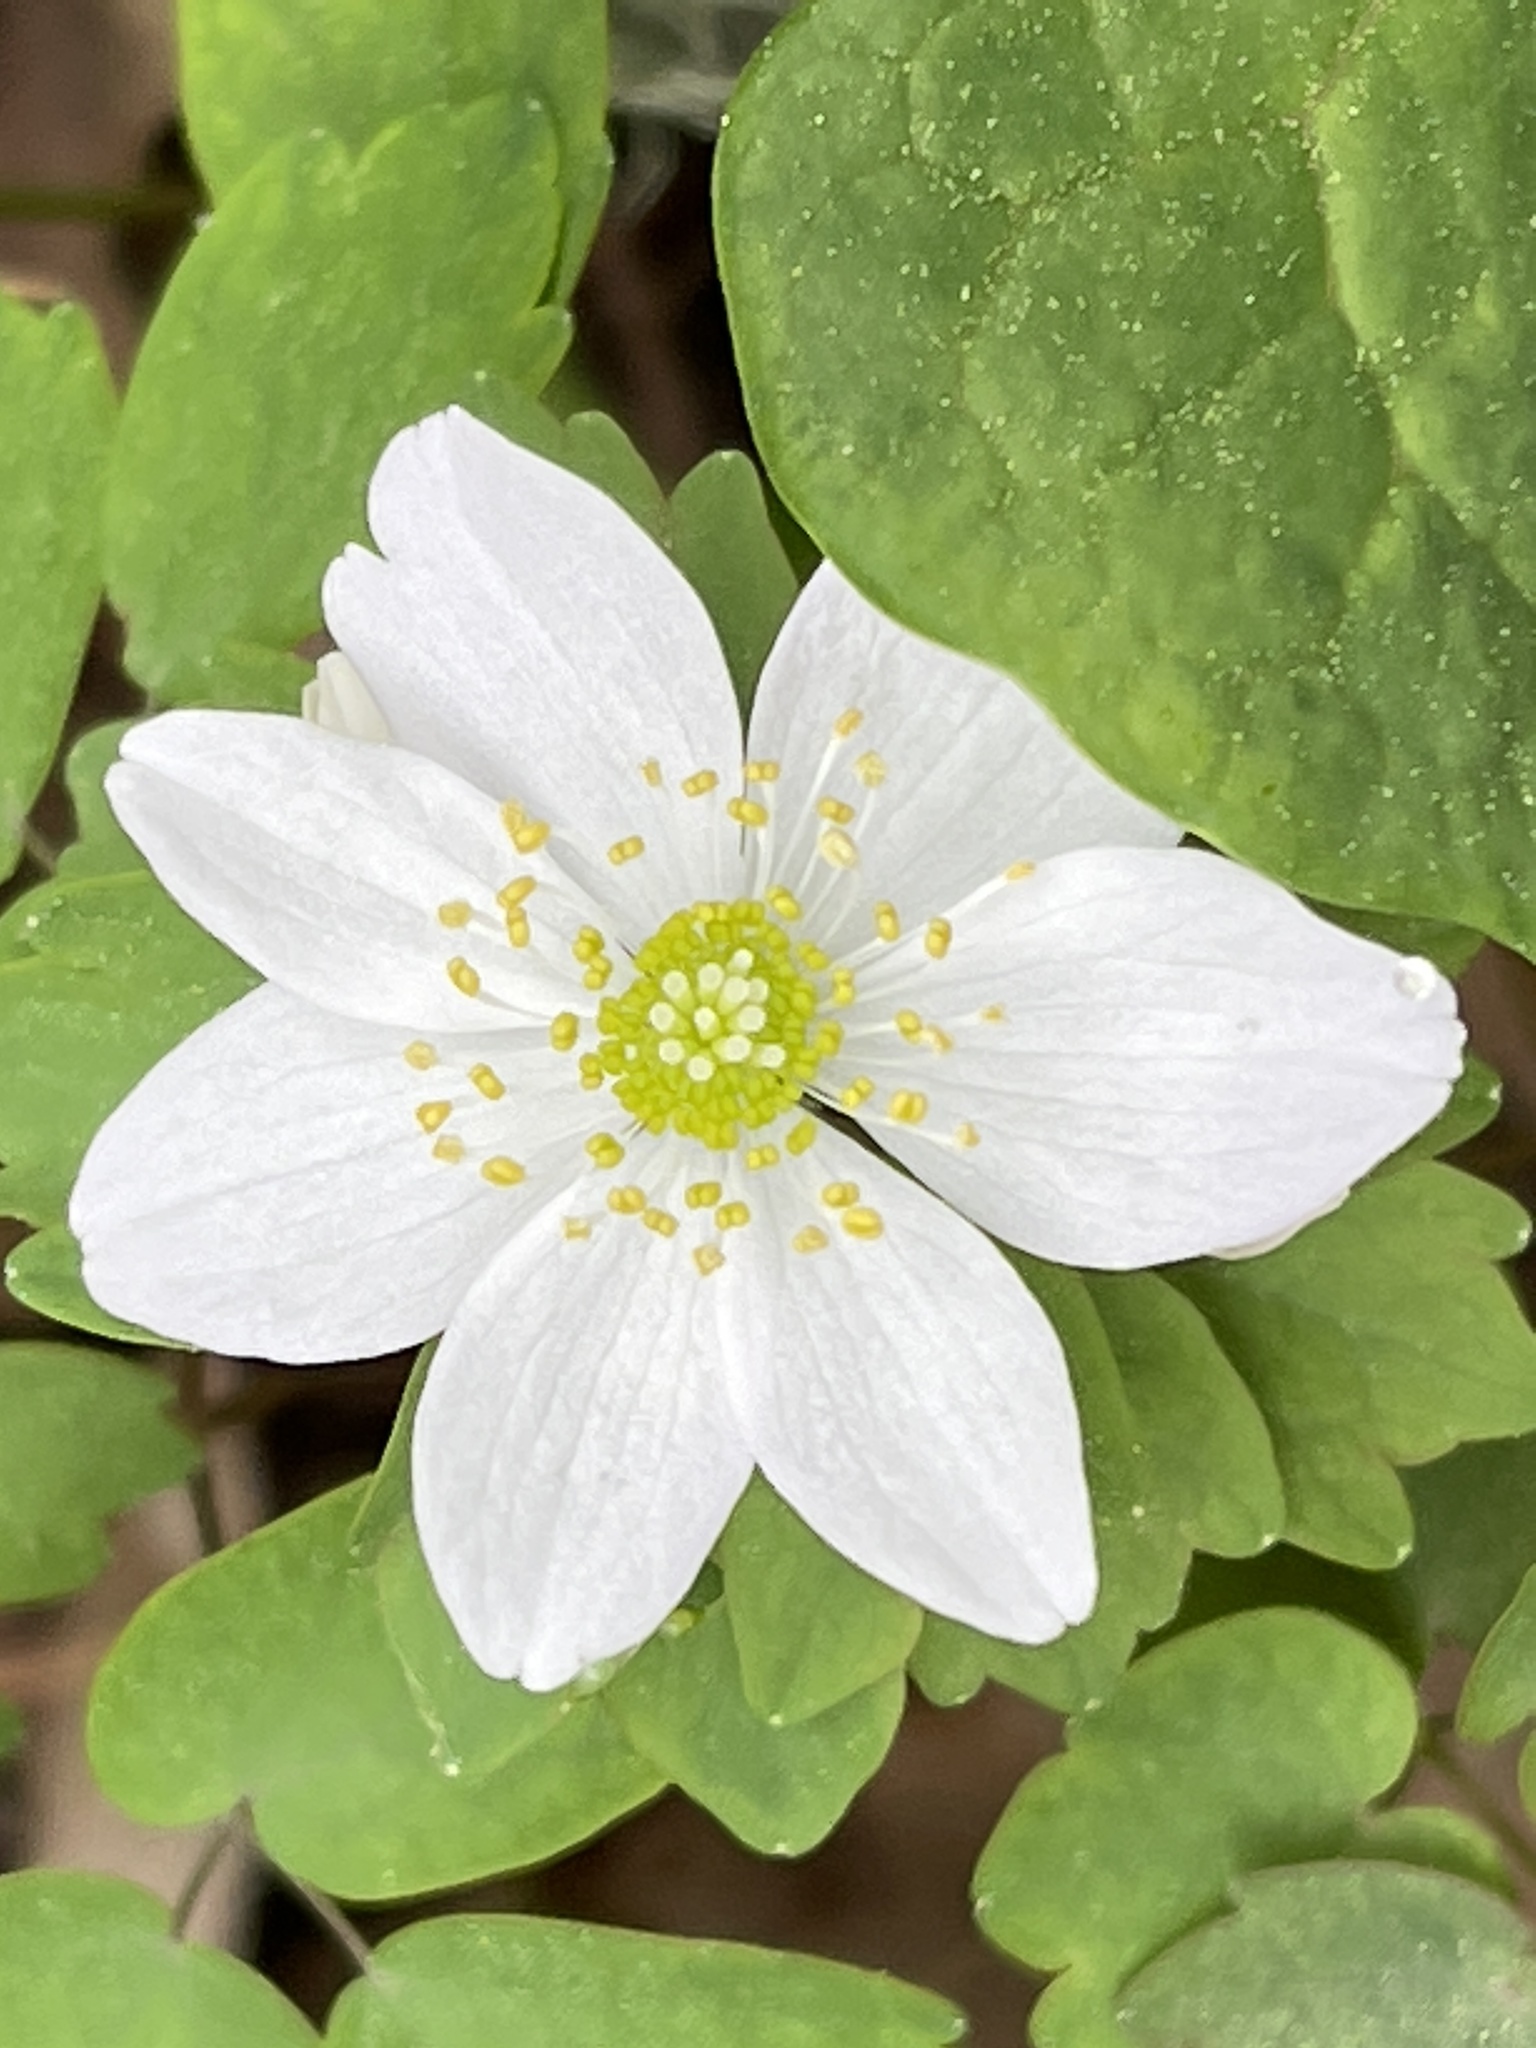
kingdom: Plantae
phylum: Tracheophyta
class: Magnoliopsida
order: Ranunculales
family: Ranunculaceae
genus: Thalictrum
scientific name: Thalictrum thalictroides
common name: Rue-anemone
